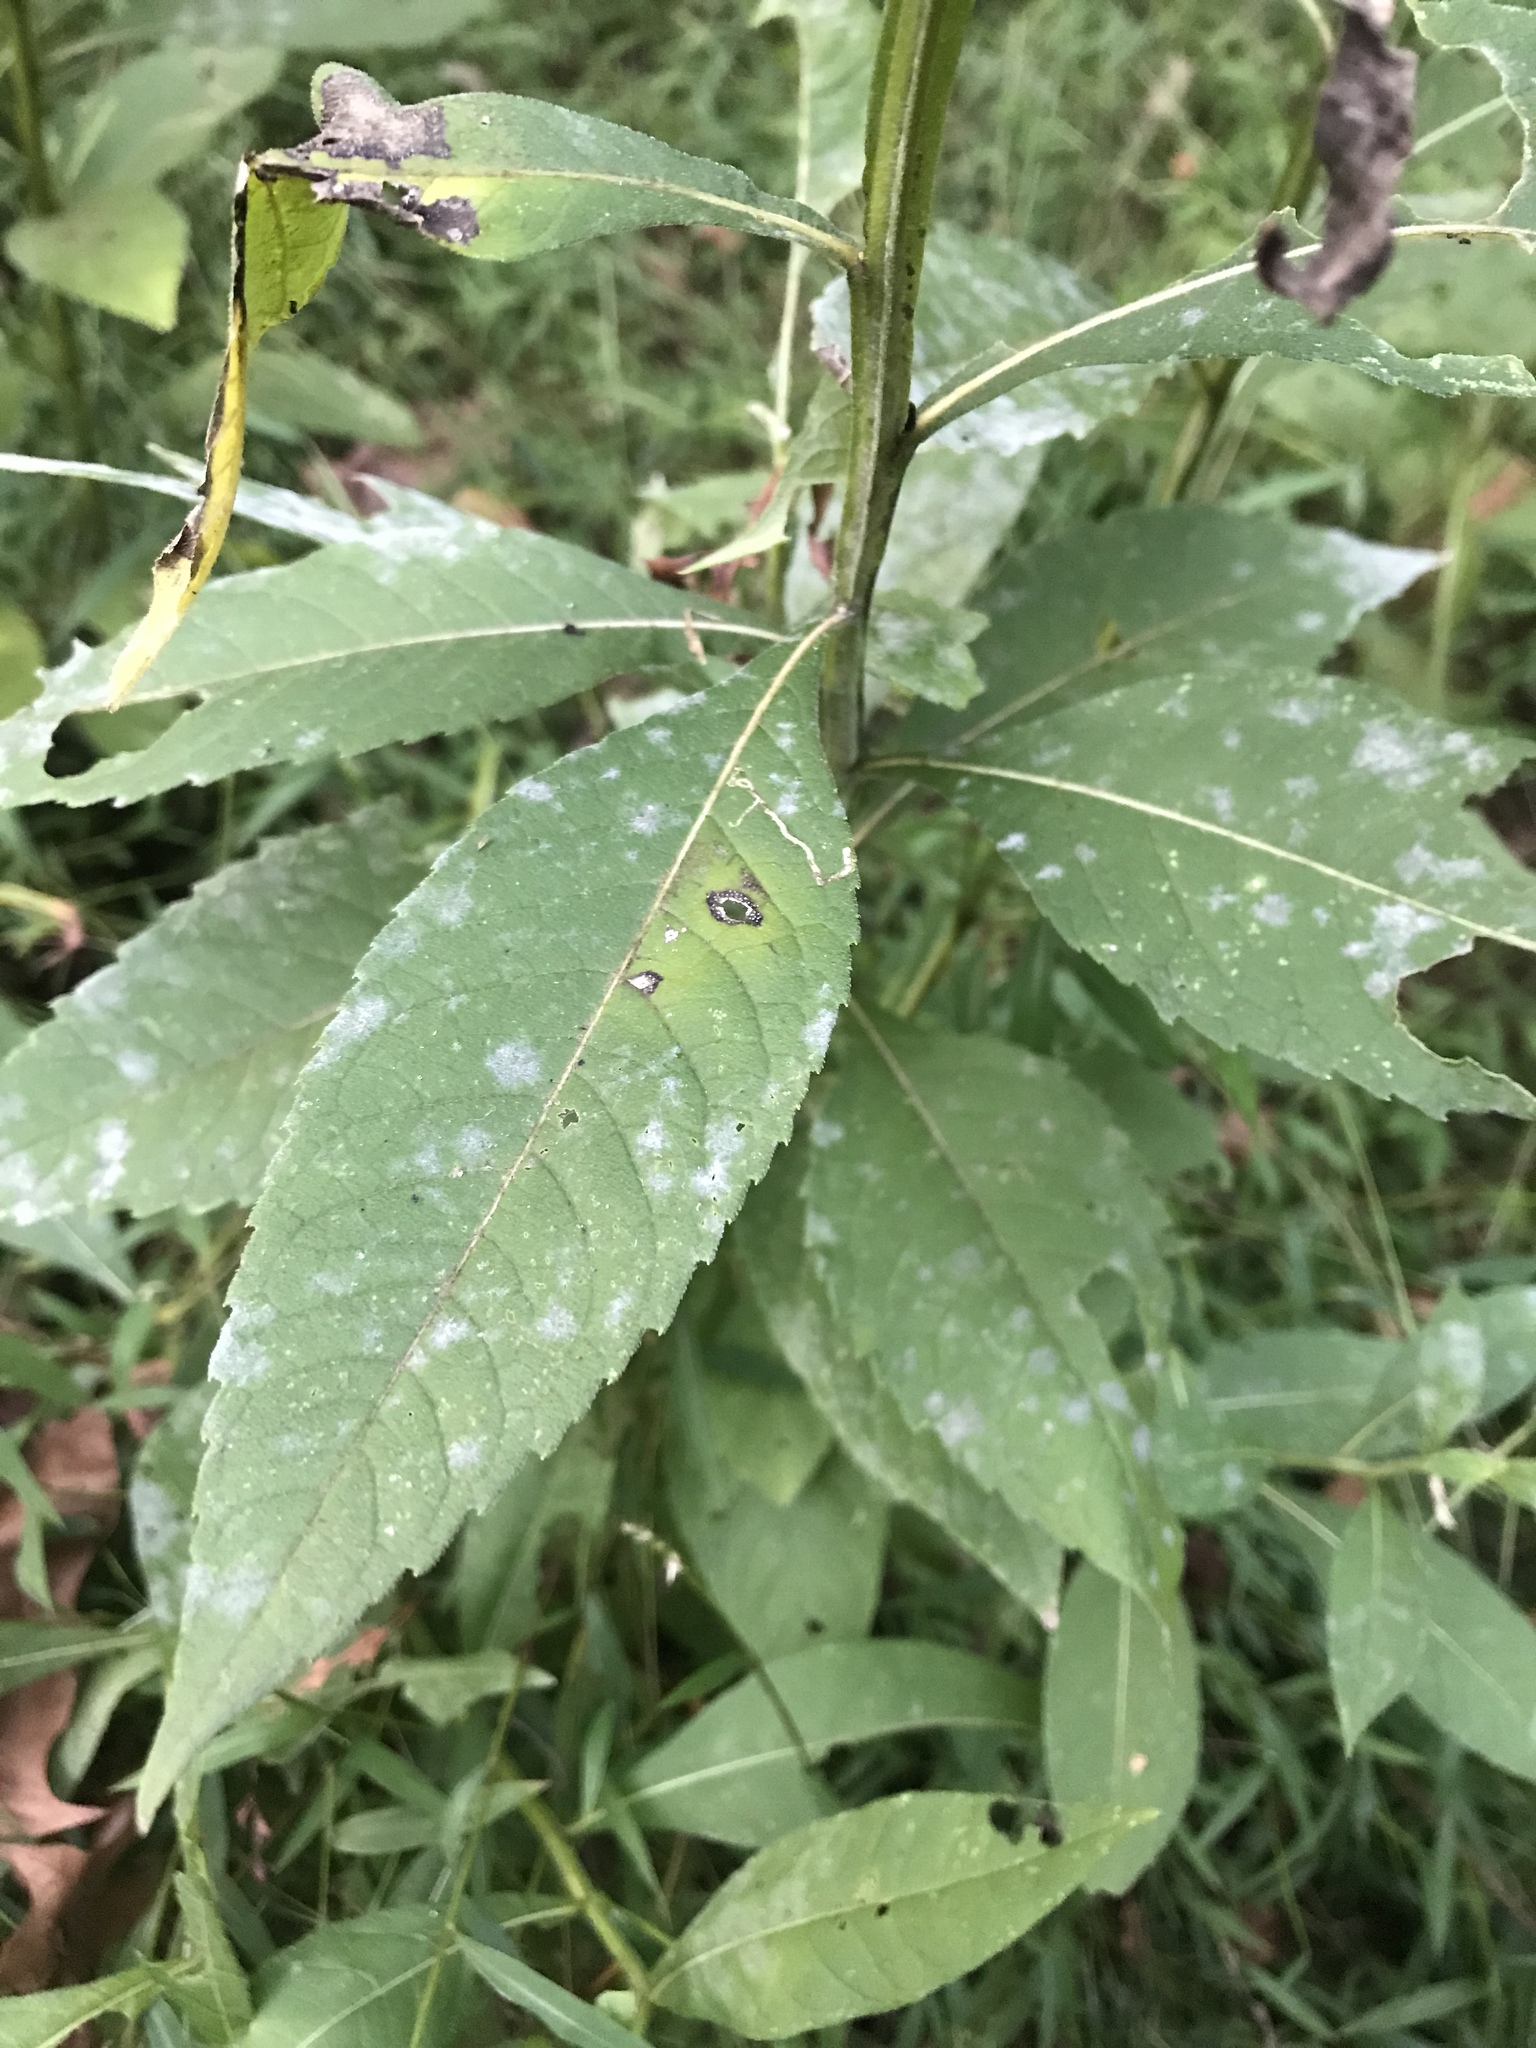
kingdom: Plantae
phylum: Tracheophyta
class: Magnoliopsida
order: Asterales
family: Asteraceae
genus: Verbesina
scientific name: Verbesina alternifolia
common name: Wingstem
